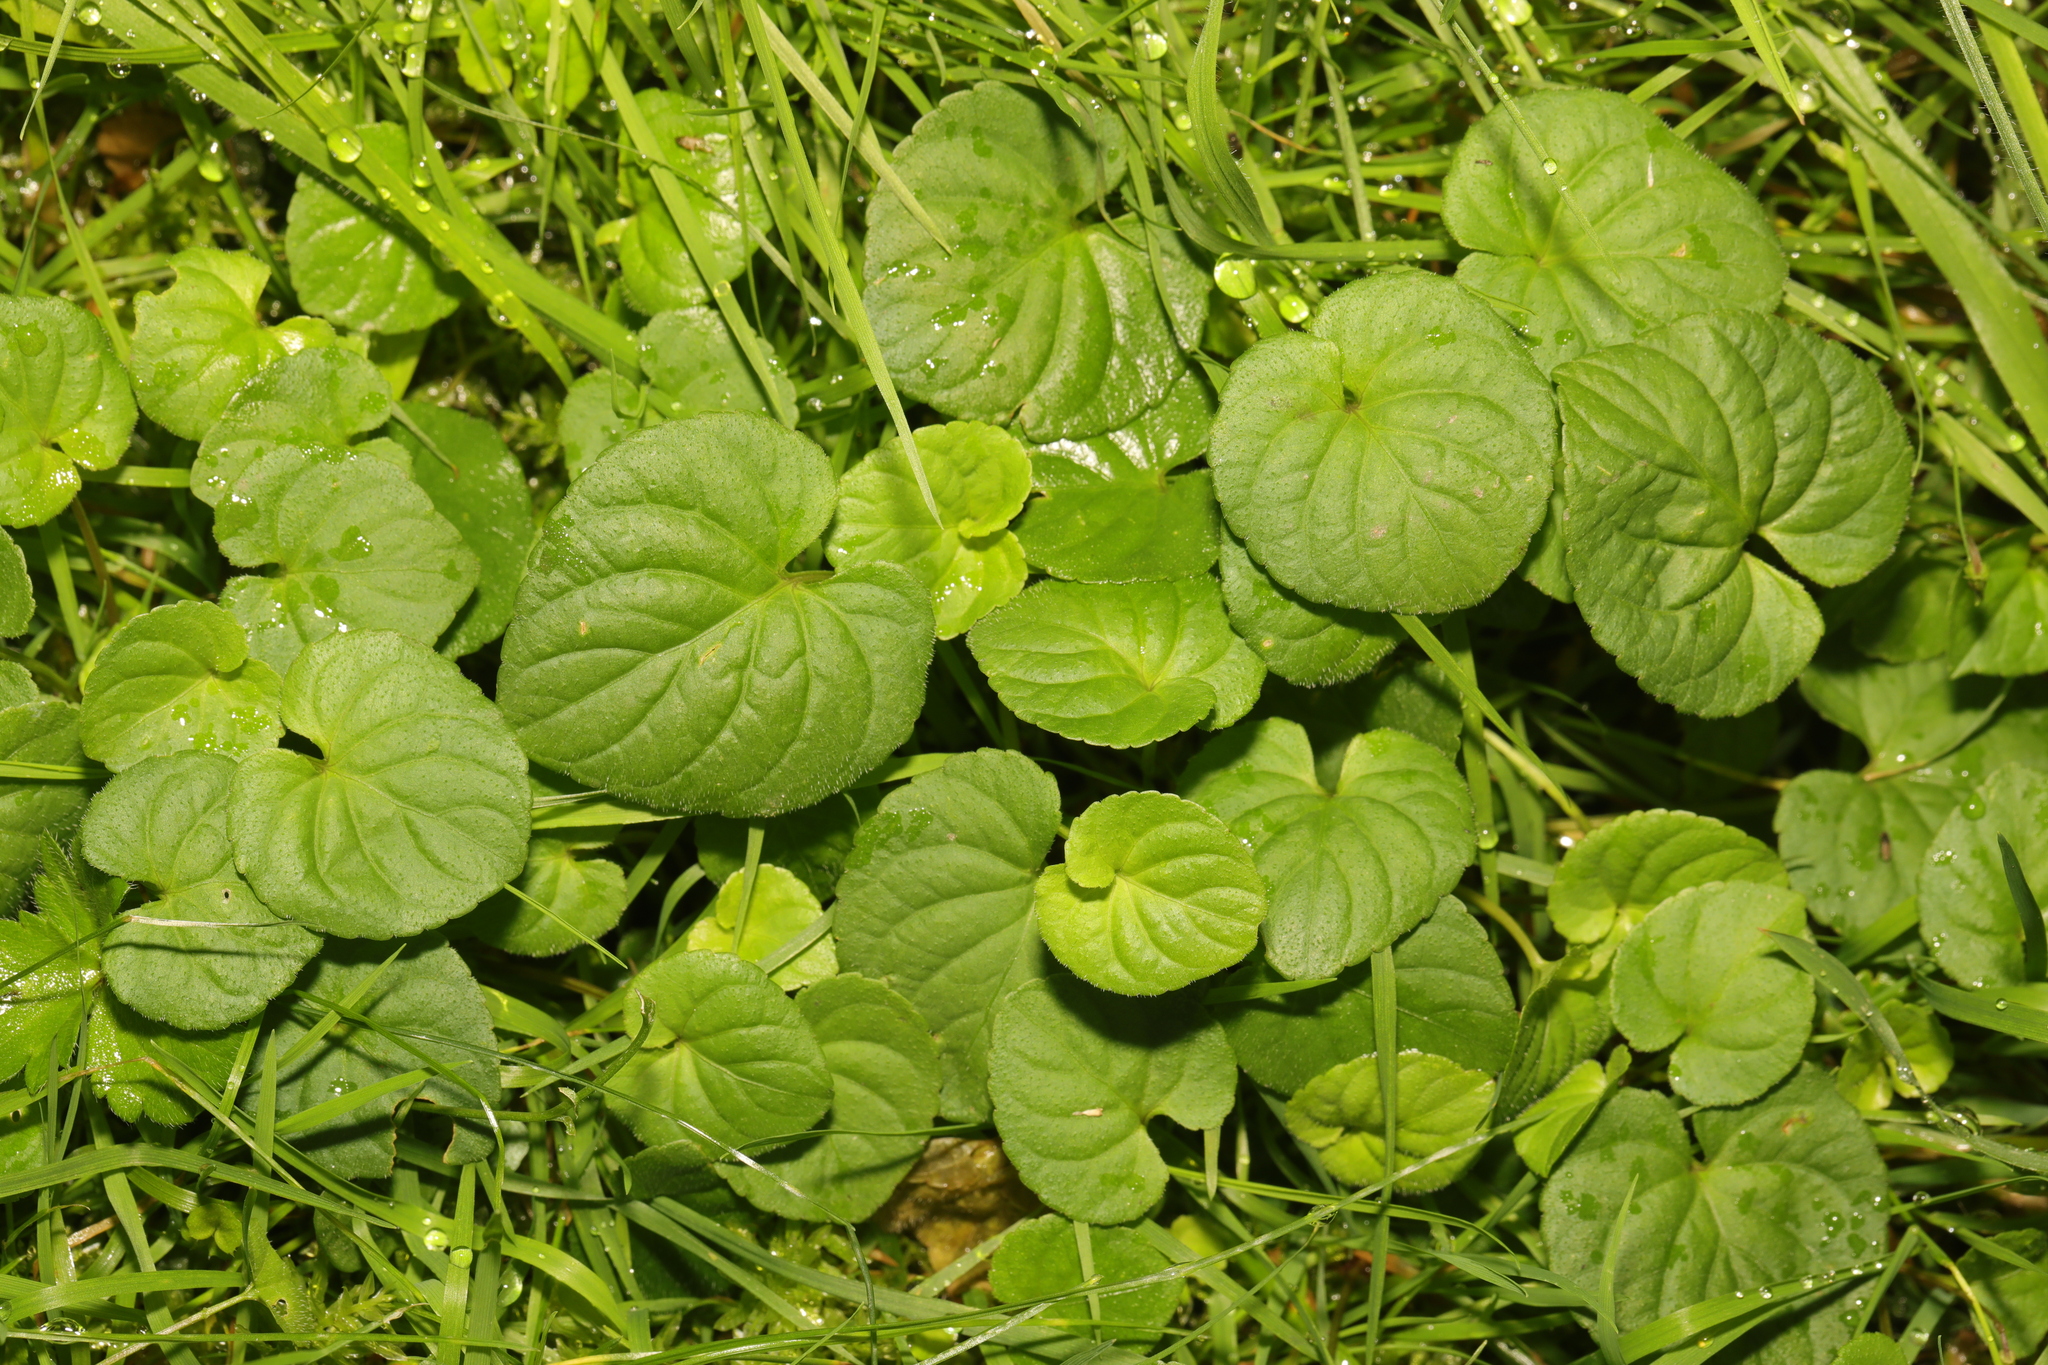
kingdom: Plantae
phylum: Tracheophyta
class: Magnoliopsida
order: Malpighiales
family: Violaceae
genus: Viola
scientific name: Viola riviniana
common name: Common dog-violet
